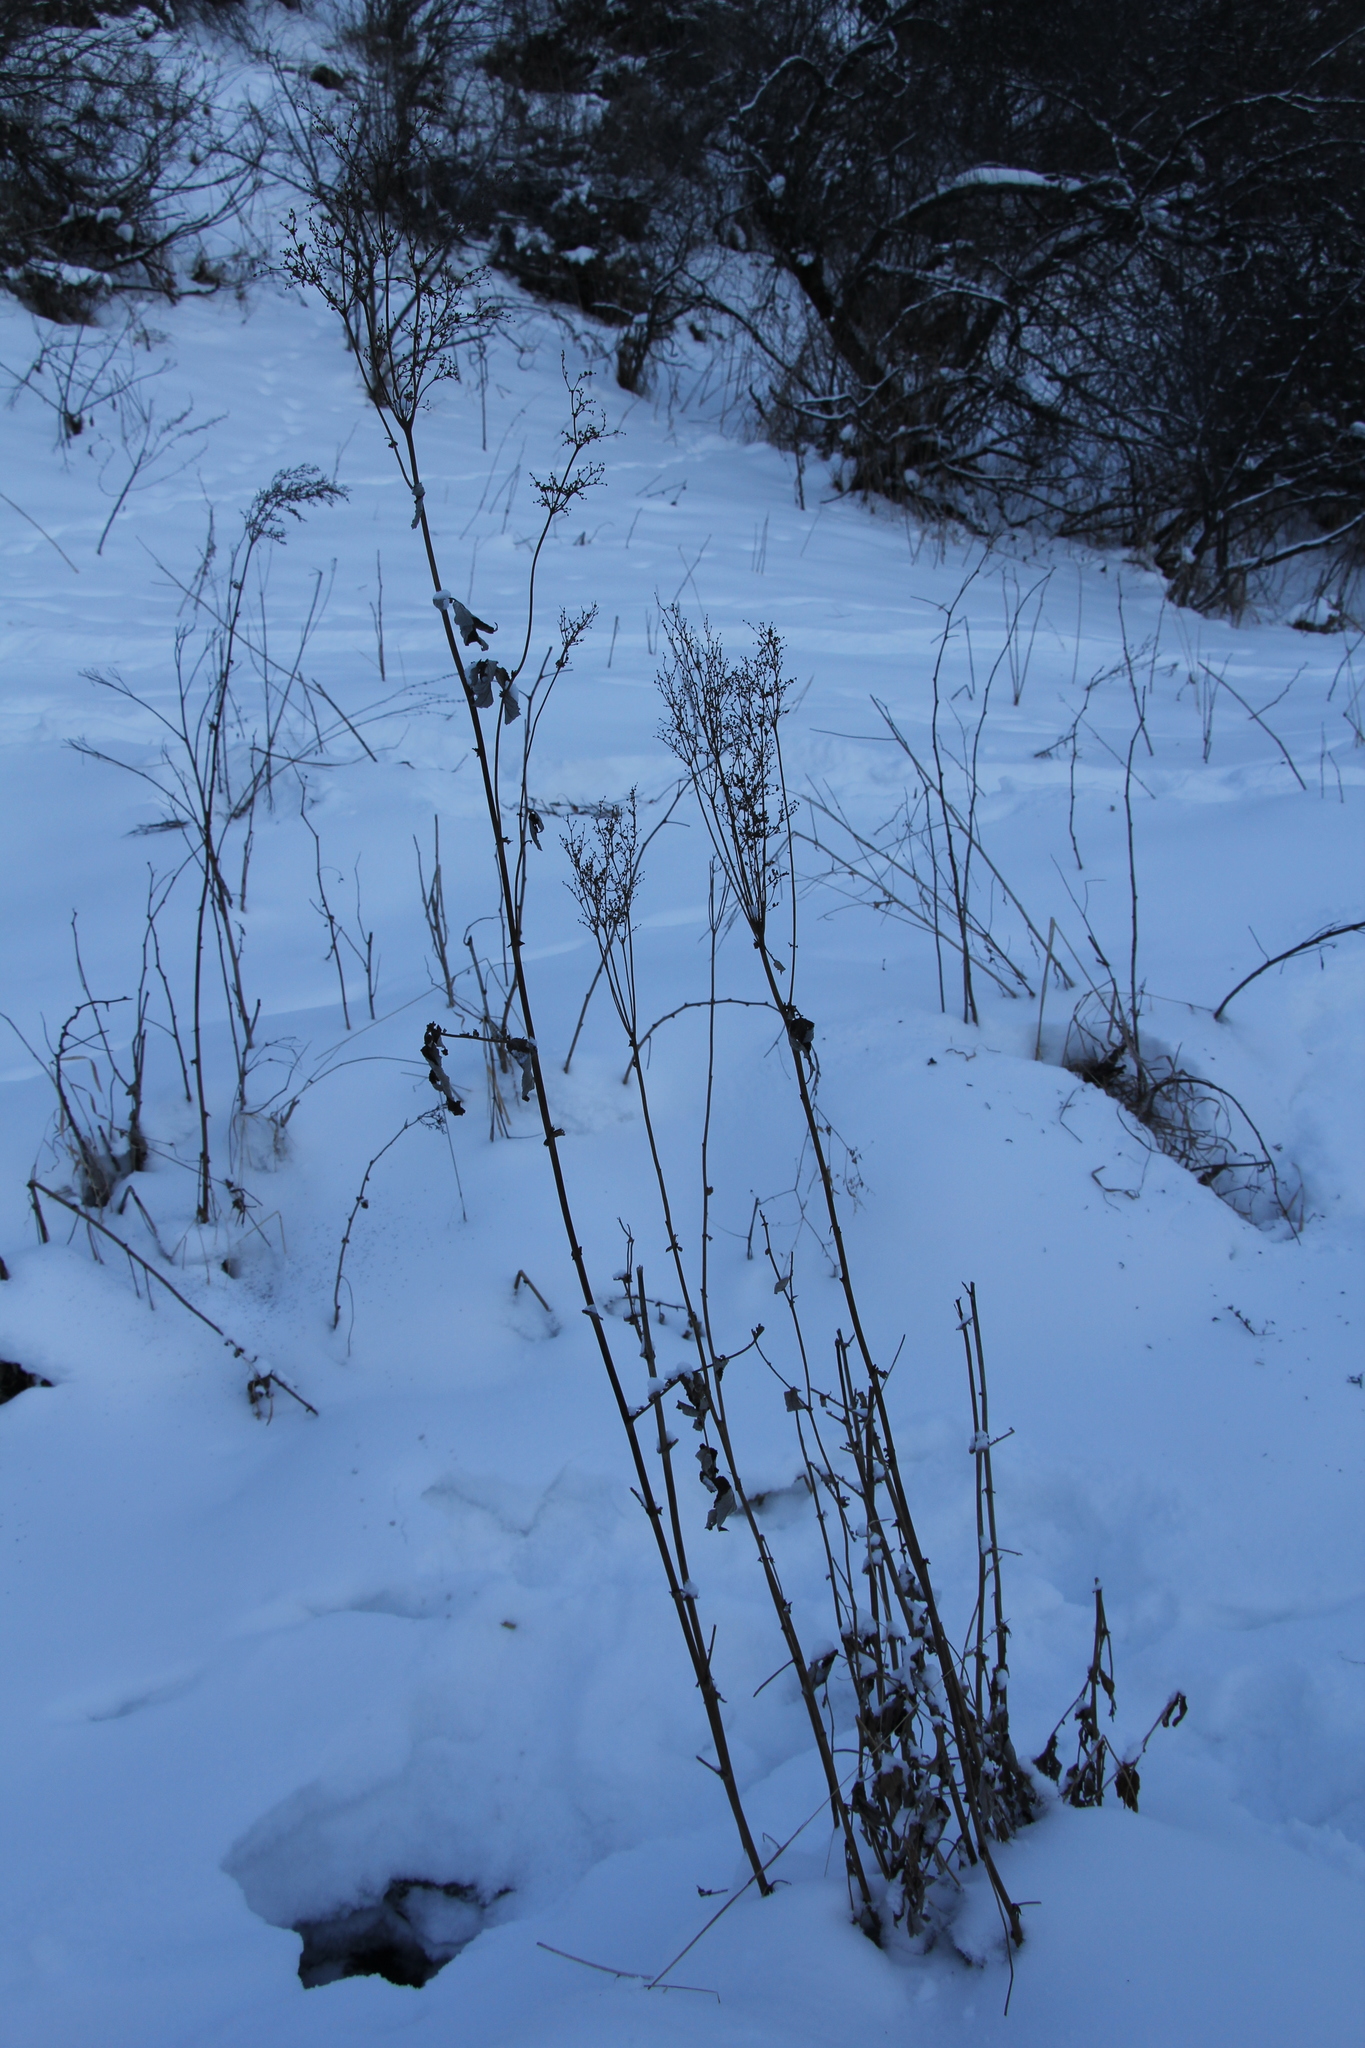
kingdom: Plantae
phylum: Tracheophyta
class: Magnoliopsida
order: Rosales
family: Rosaceae
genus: Filipendula
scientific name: Filipendula ulmaria
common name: Meadowsweet
